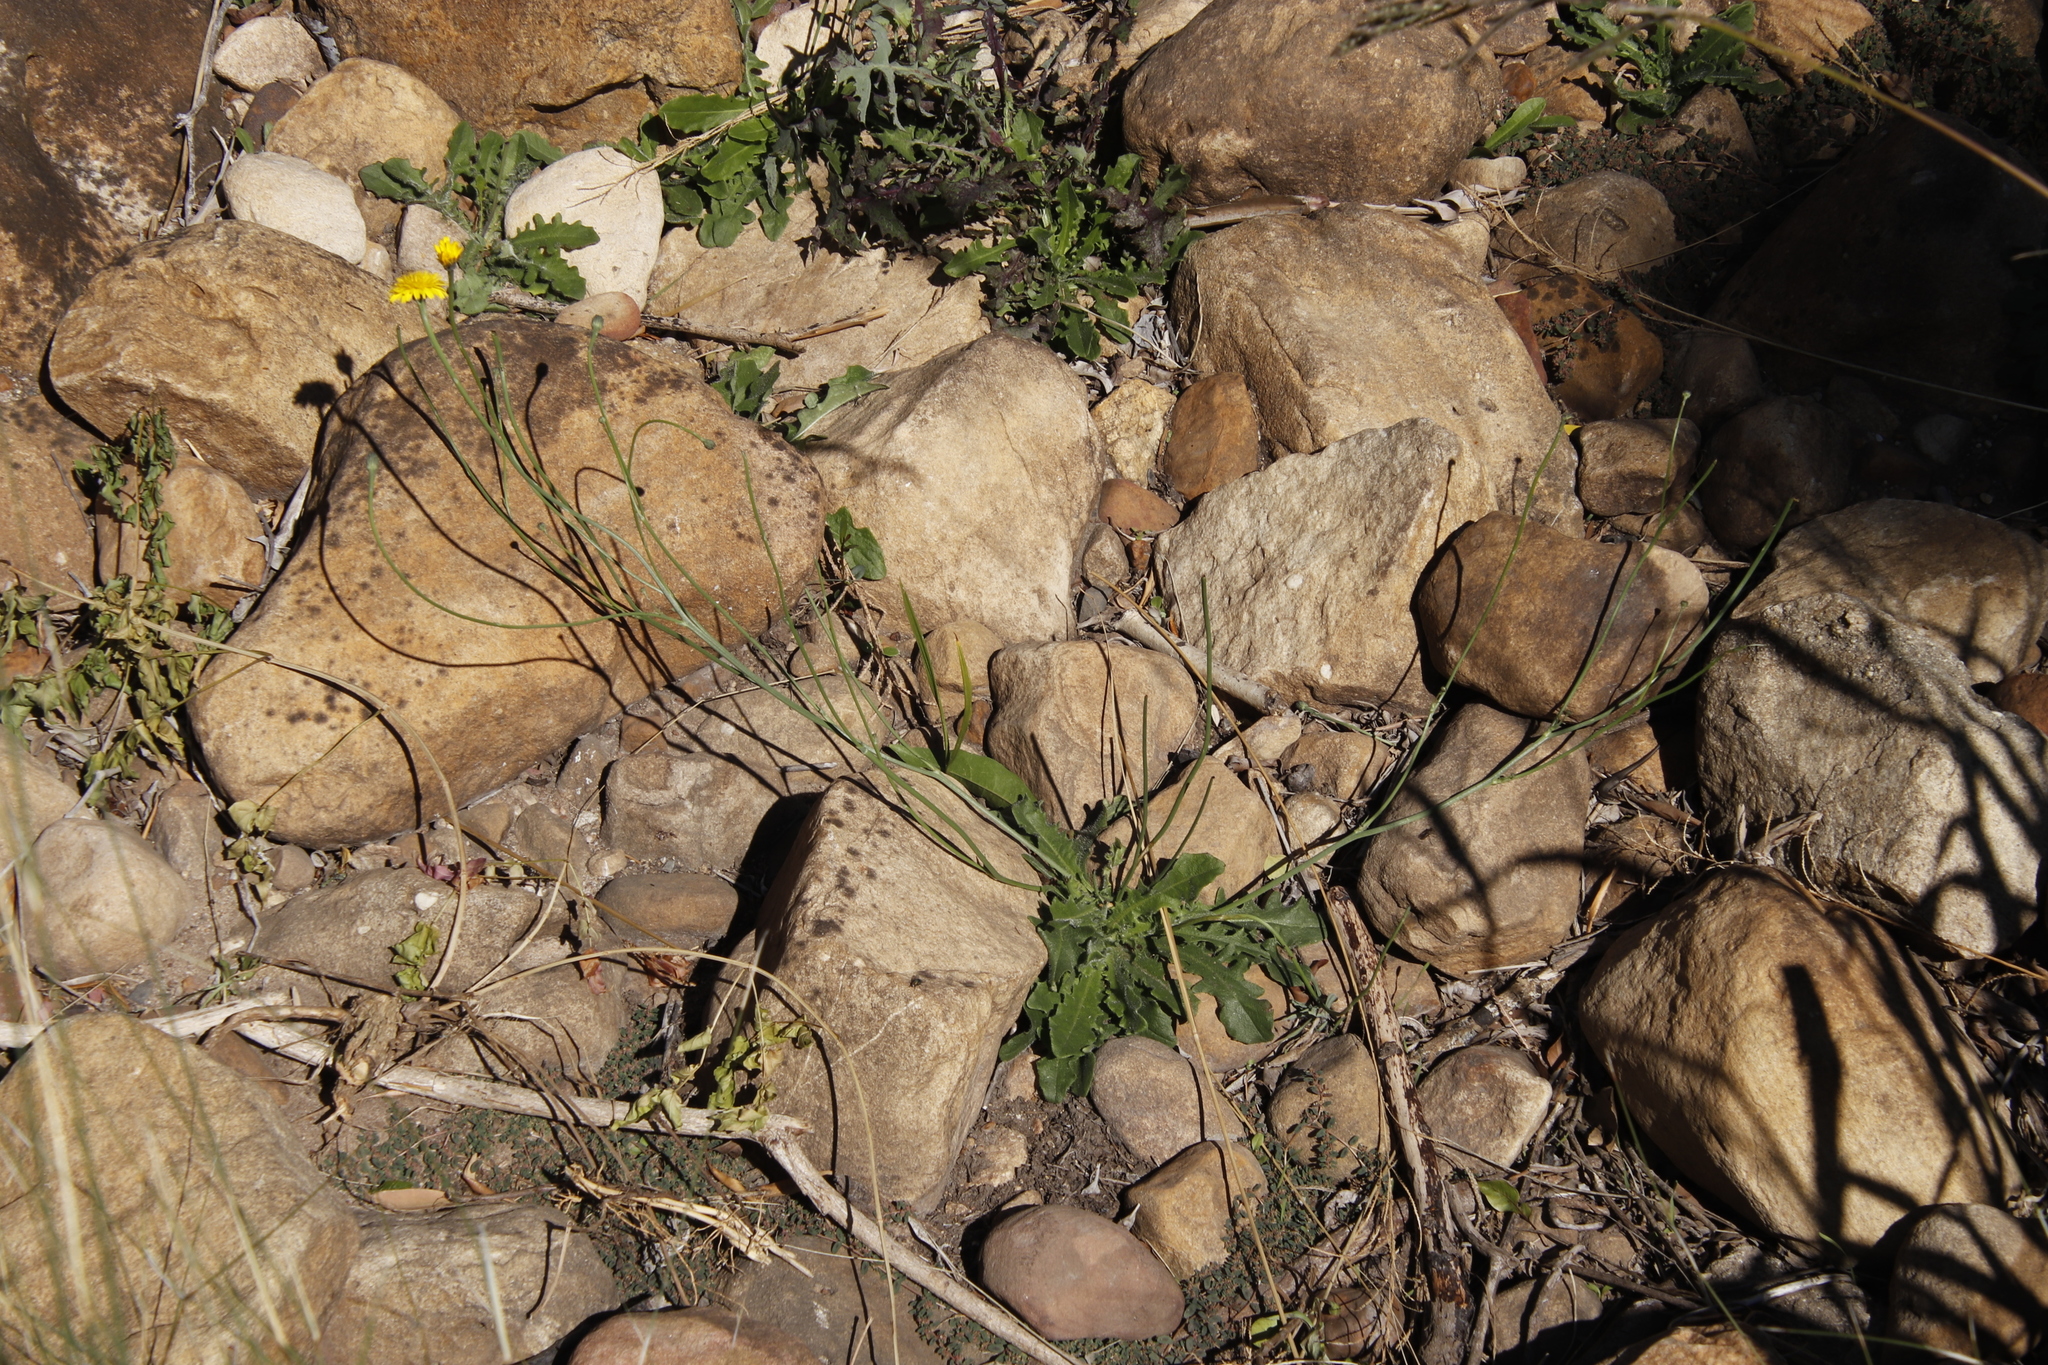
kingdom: Plantae
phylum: Tracheophyta
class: Magnoliopsida
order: Asterales
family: Asteraceae
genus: Hypochaeris
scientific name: Hypochaeris radicata
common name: Flatweed
